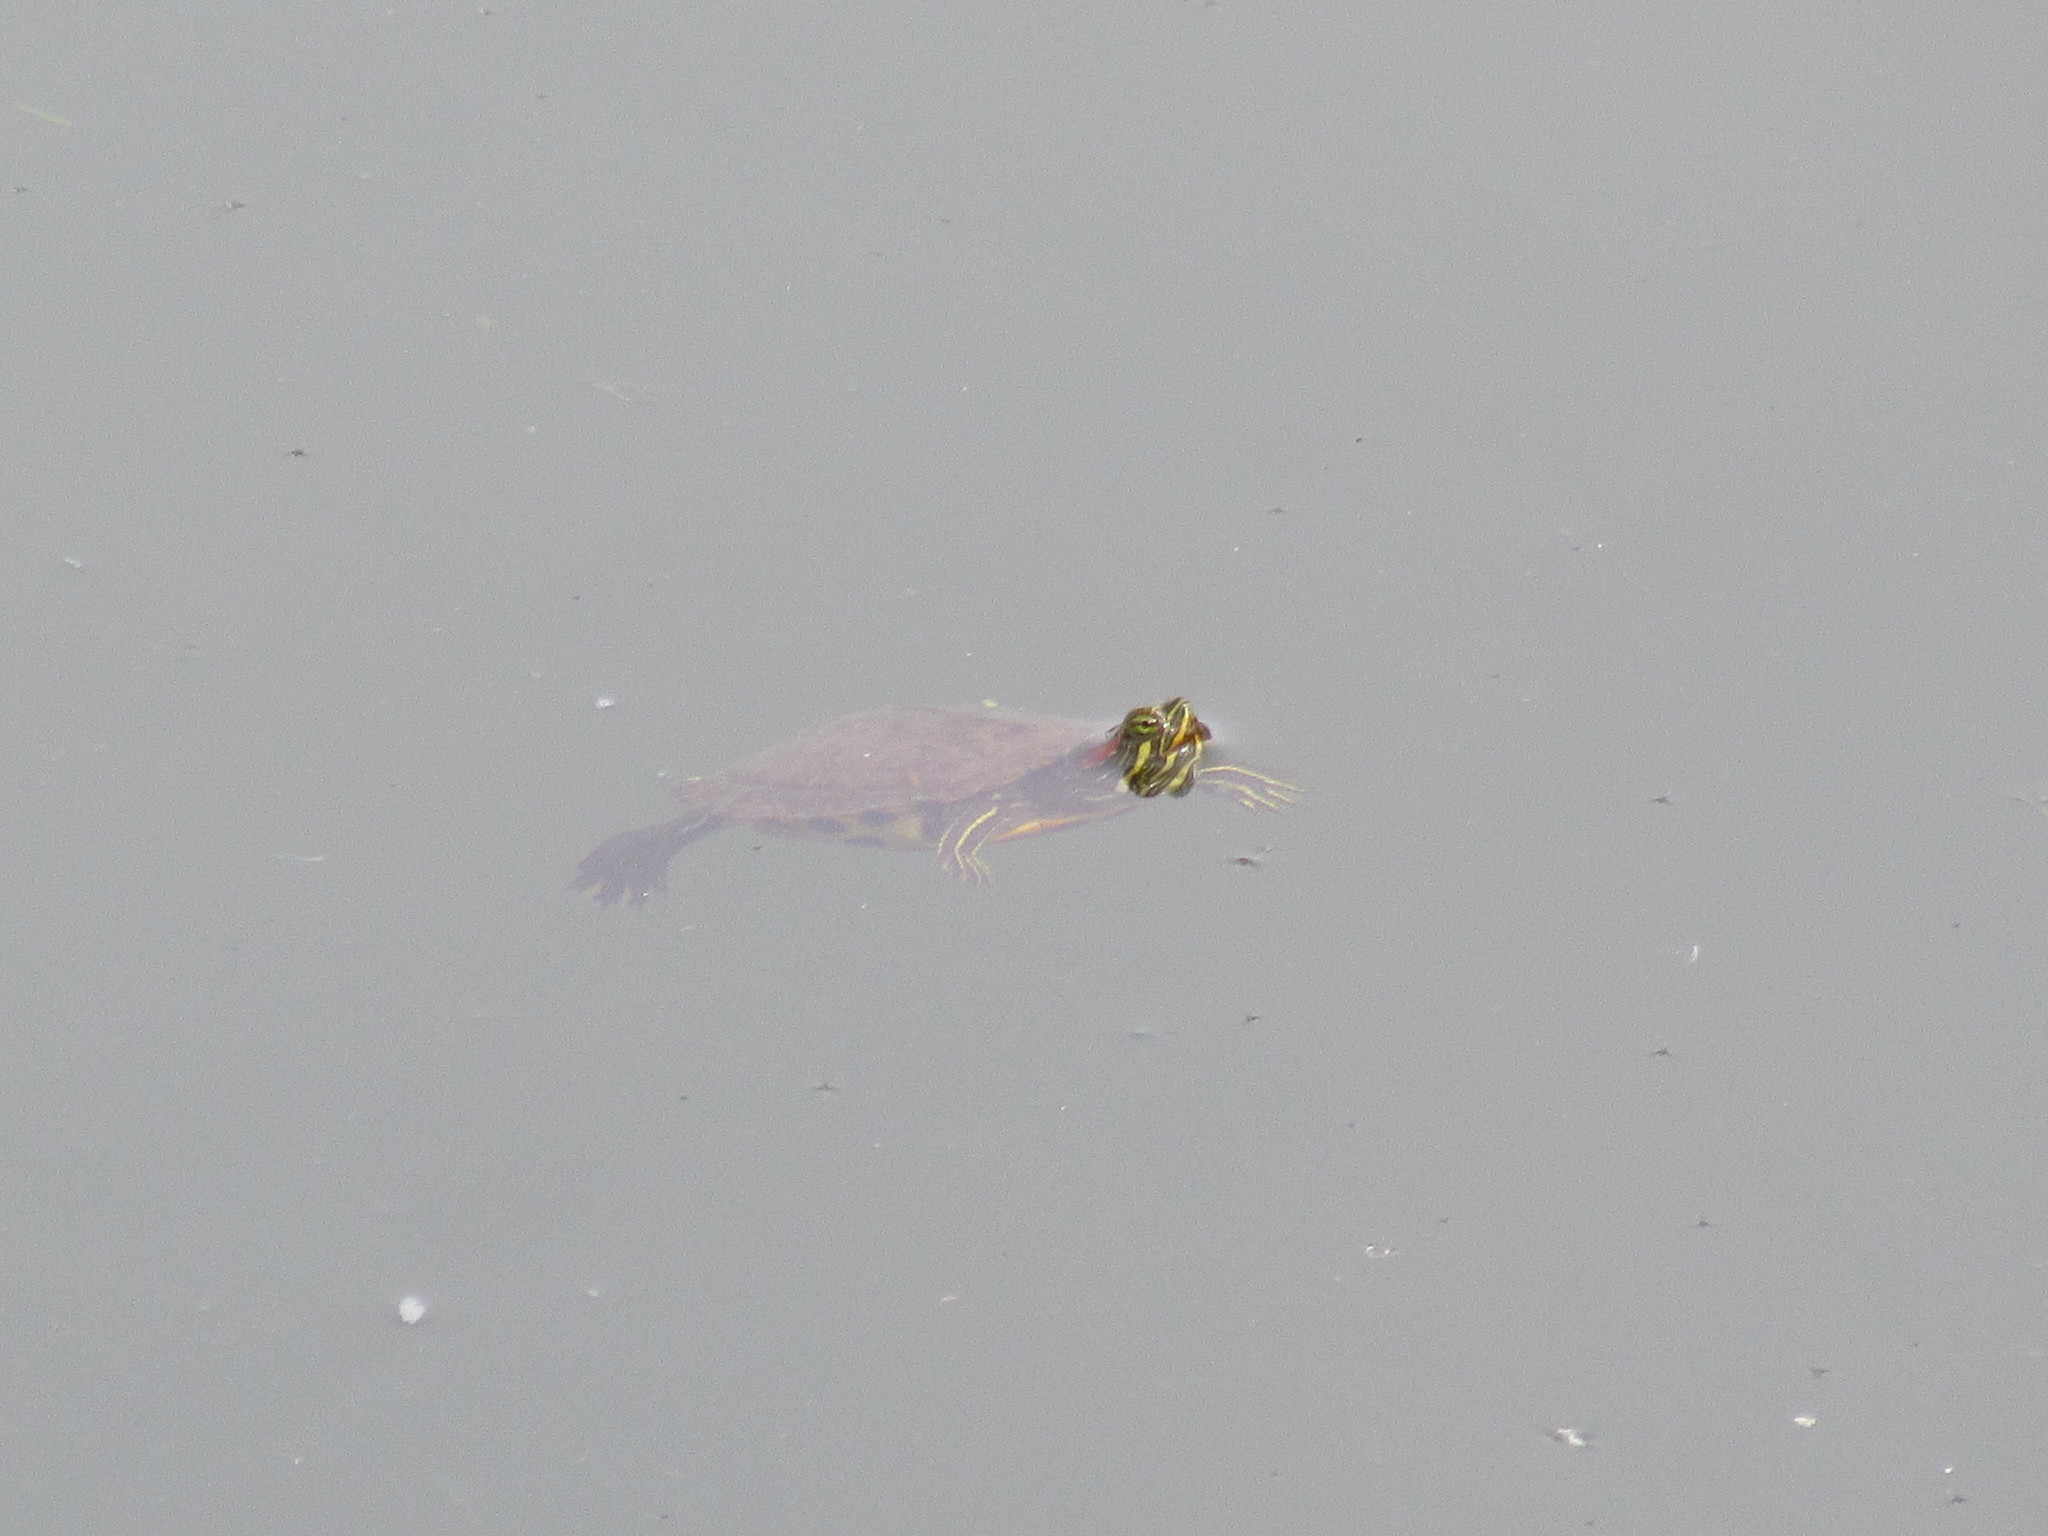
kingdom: Animalia
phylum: Chordata
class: Testudines
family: Emydidae
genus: Trachemys
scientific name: Trachemys scripta
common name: Slider
